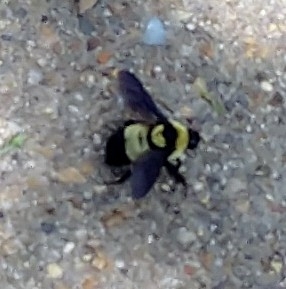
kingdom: Animalia
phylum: Arthropoda
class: Insecta
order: Hymenoptera
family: Apidae
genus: Bombus
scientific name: Bombus fraternus
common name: Southern plains bumble bee
